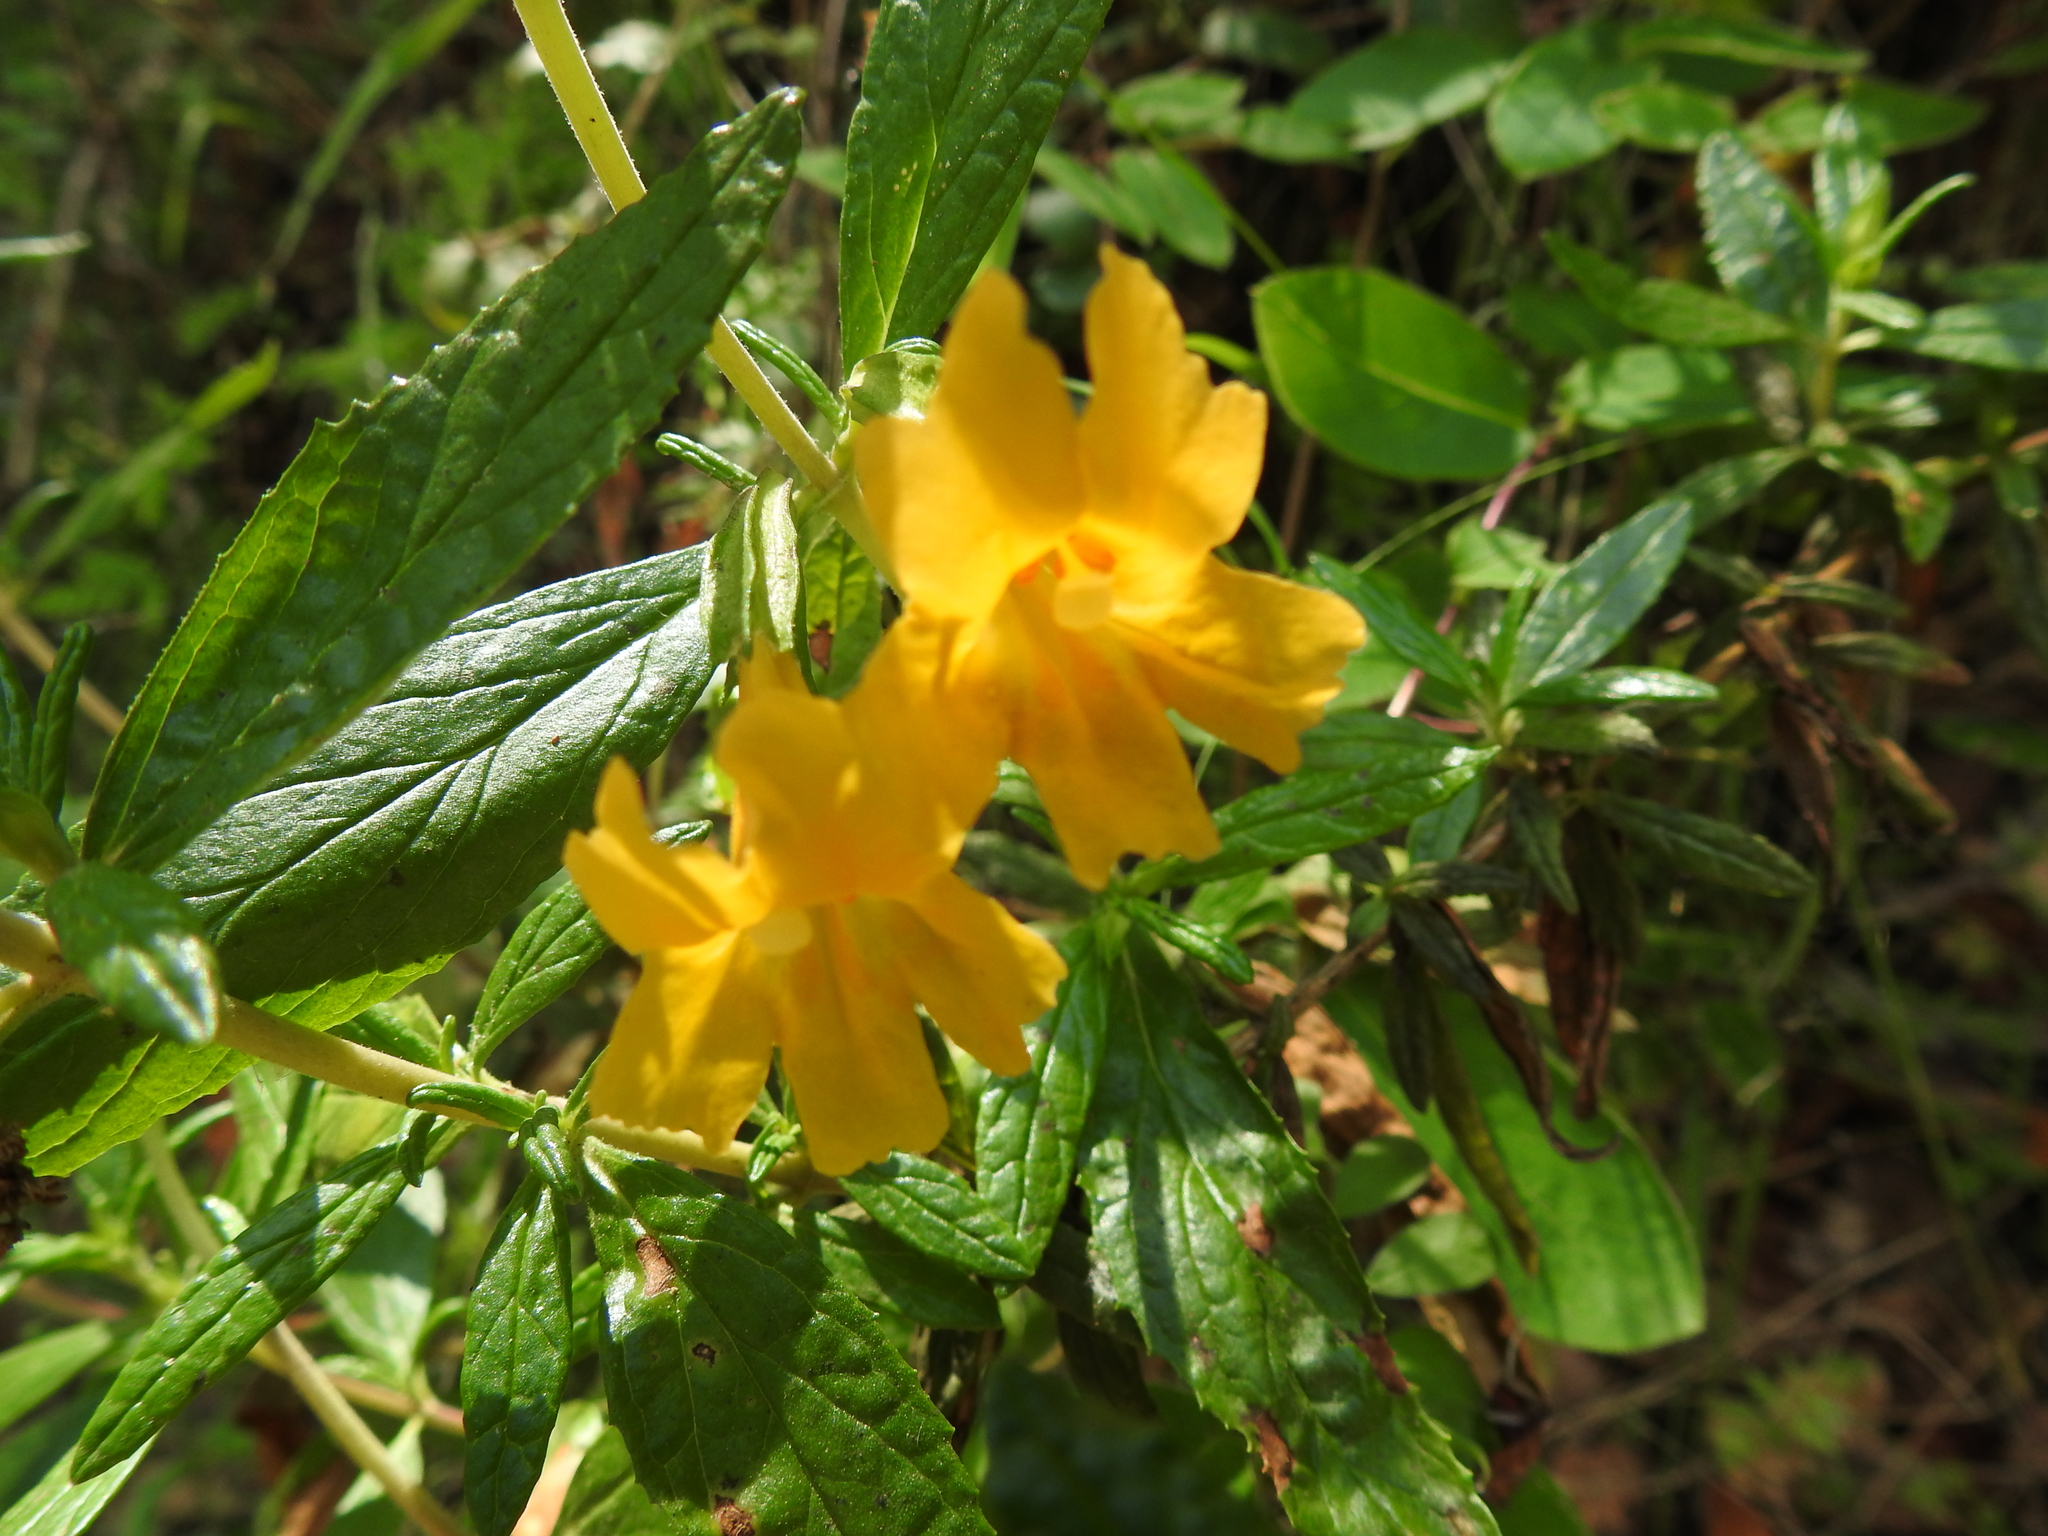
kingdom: Plantae
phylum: Tracheophyta
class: Magnoliopsida
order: Lamiales
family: Phrymaceae
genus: Diplacus
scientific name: Diplacus aurantiacus
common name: Bush monkey-flower
